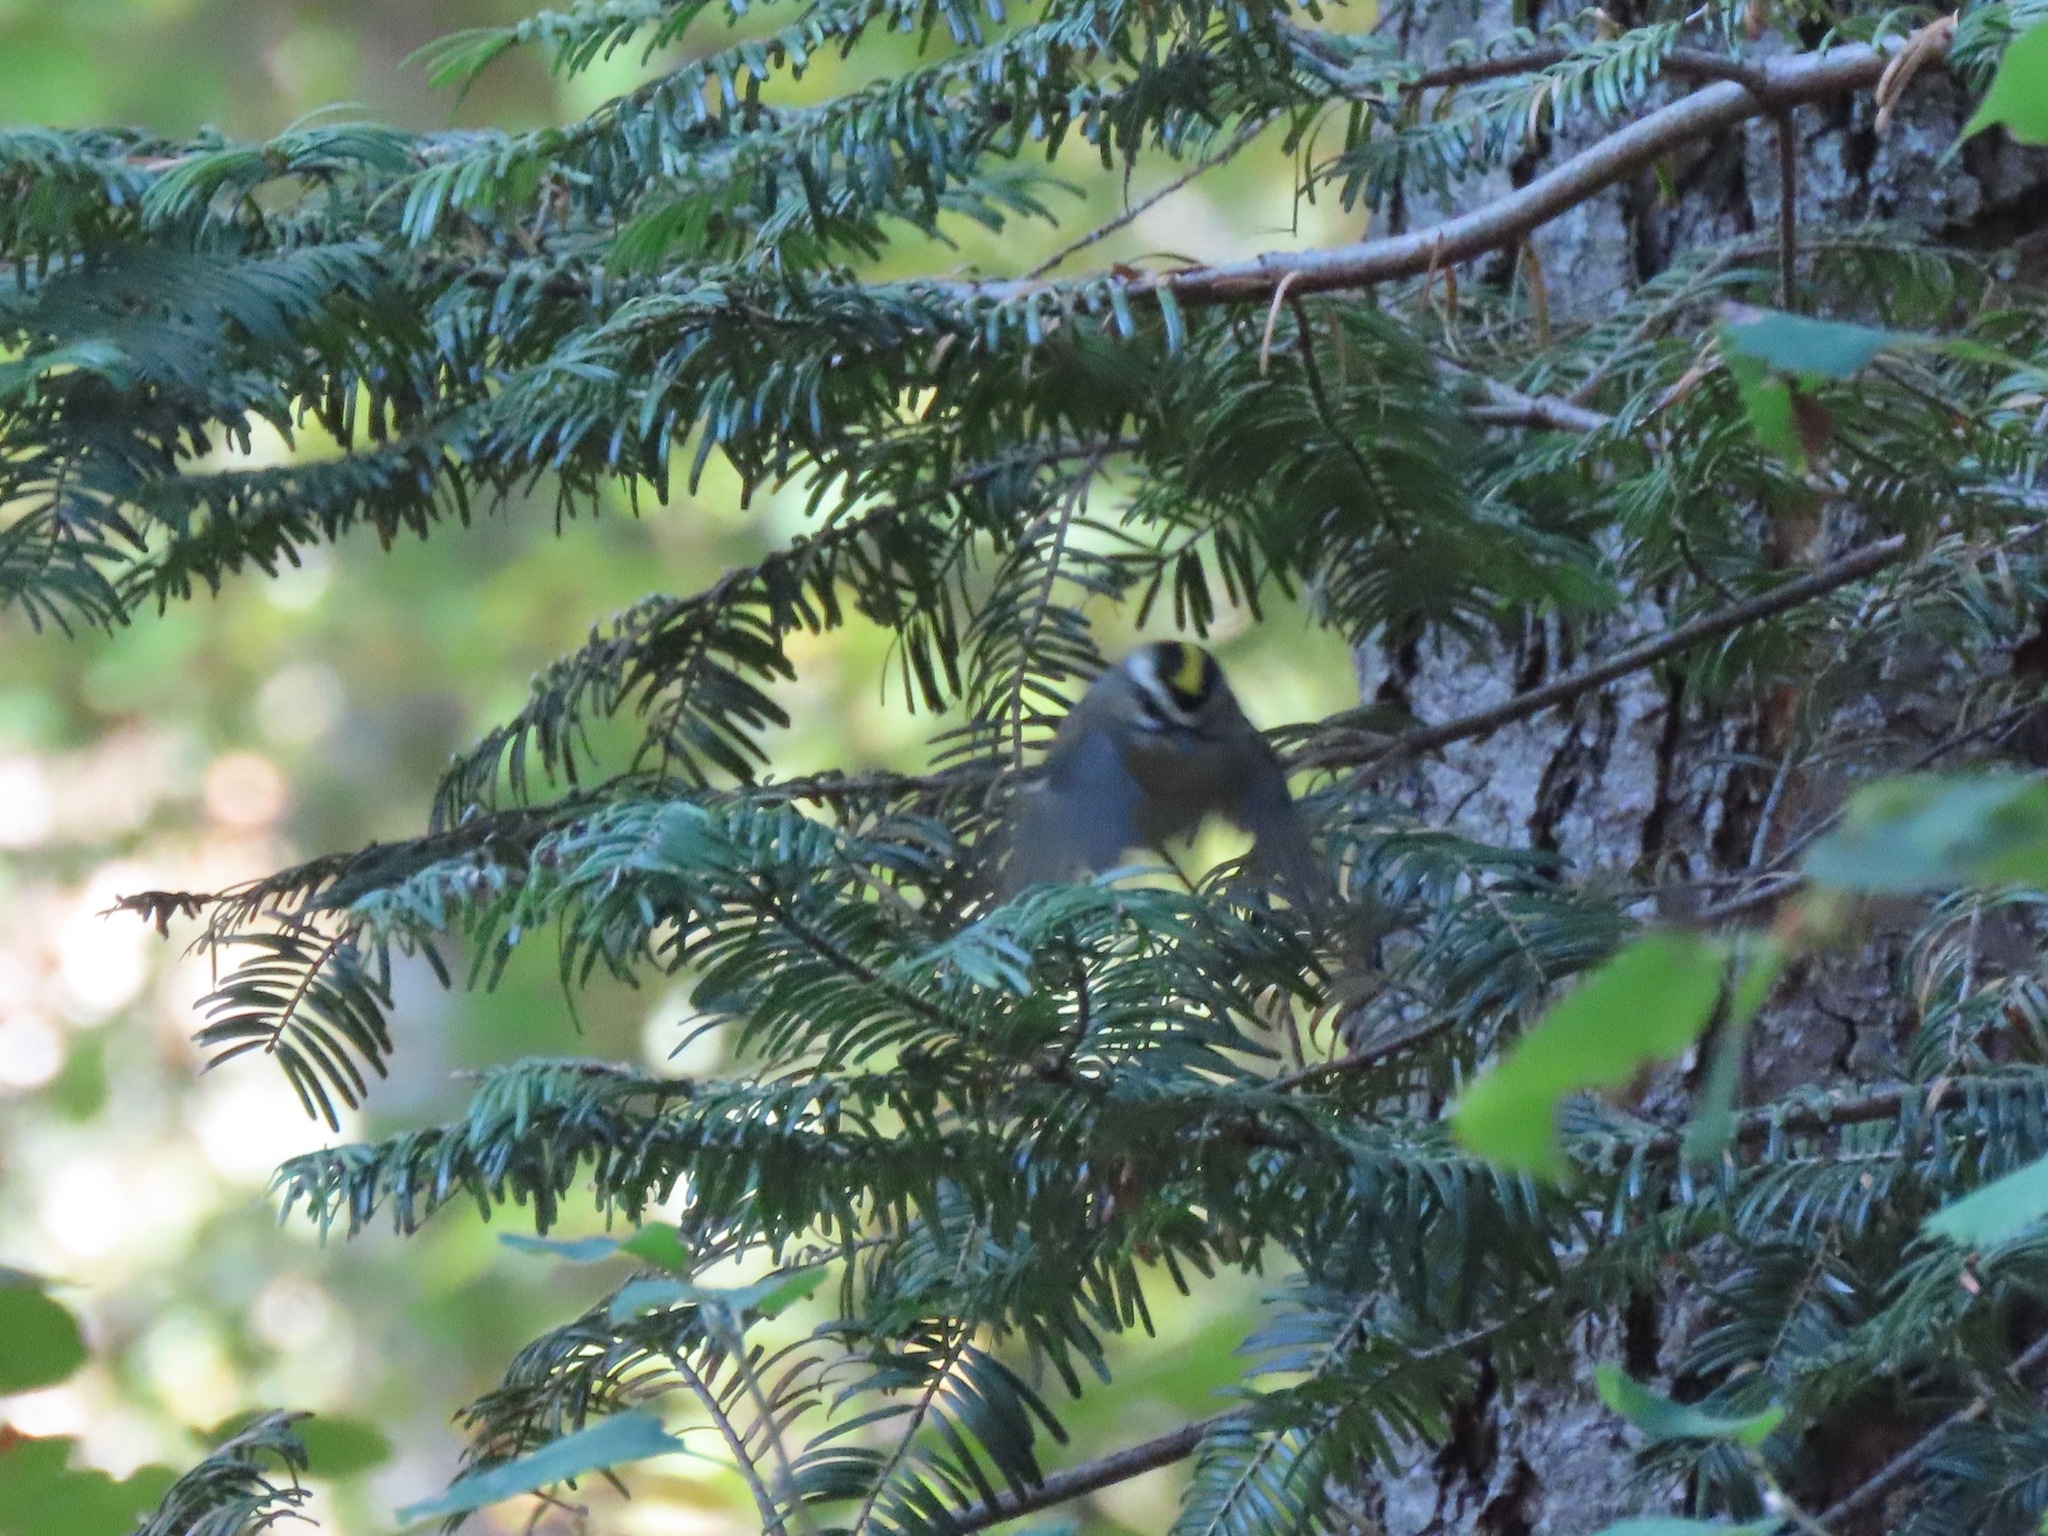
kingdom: Animalia
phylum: Chordata
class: Aves
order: Passeriformes
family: Regulidae
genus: Regulus
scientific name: Regulus satrapa
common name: Golden-crowned kinglet
